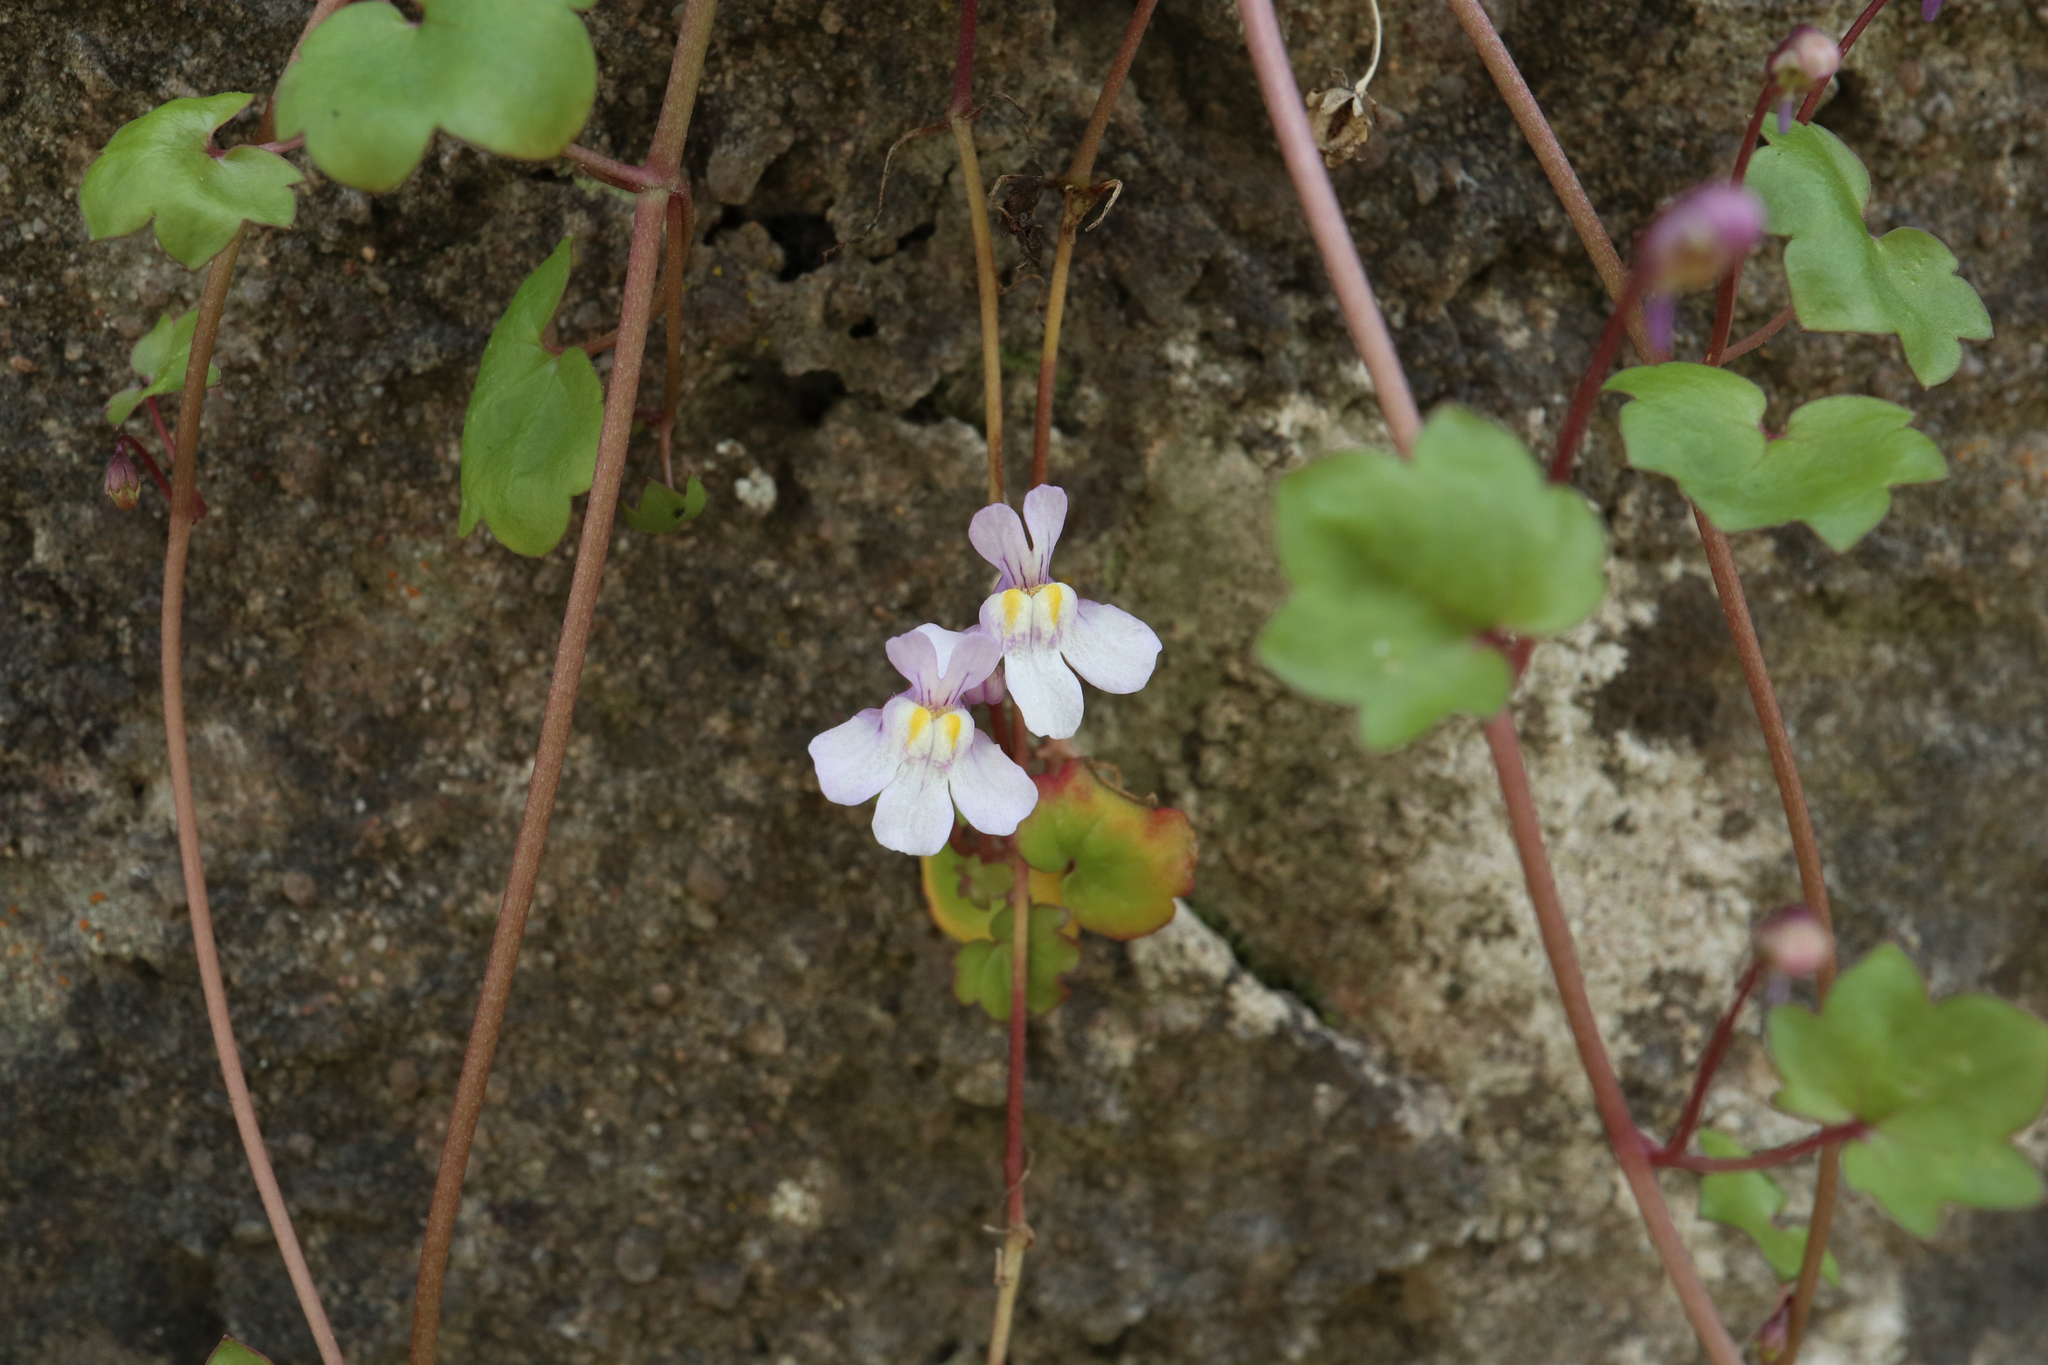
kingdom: Plantae
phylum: Tracheophyta
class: Magnoliopsida
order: Lamiales
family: Plantaginaceae
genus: Cymbalaria
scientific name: Cymbalaria muralis
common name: Ivy-leaved toadflax
